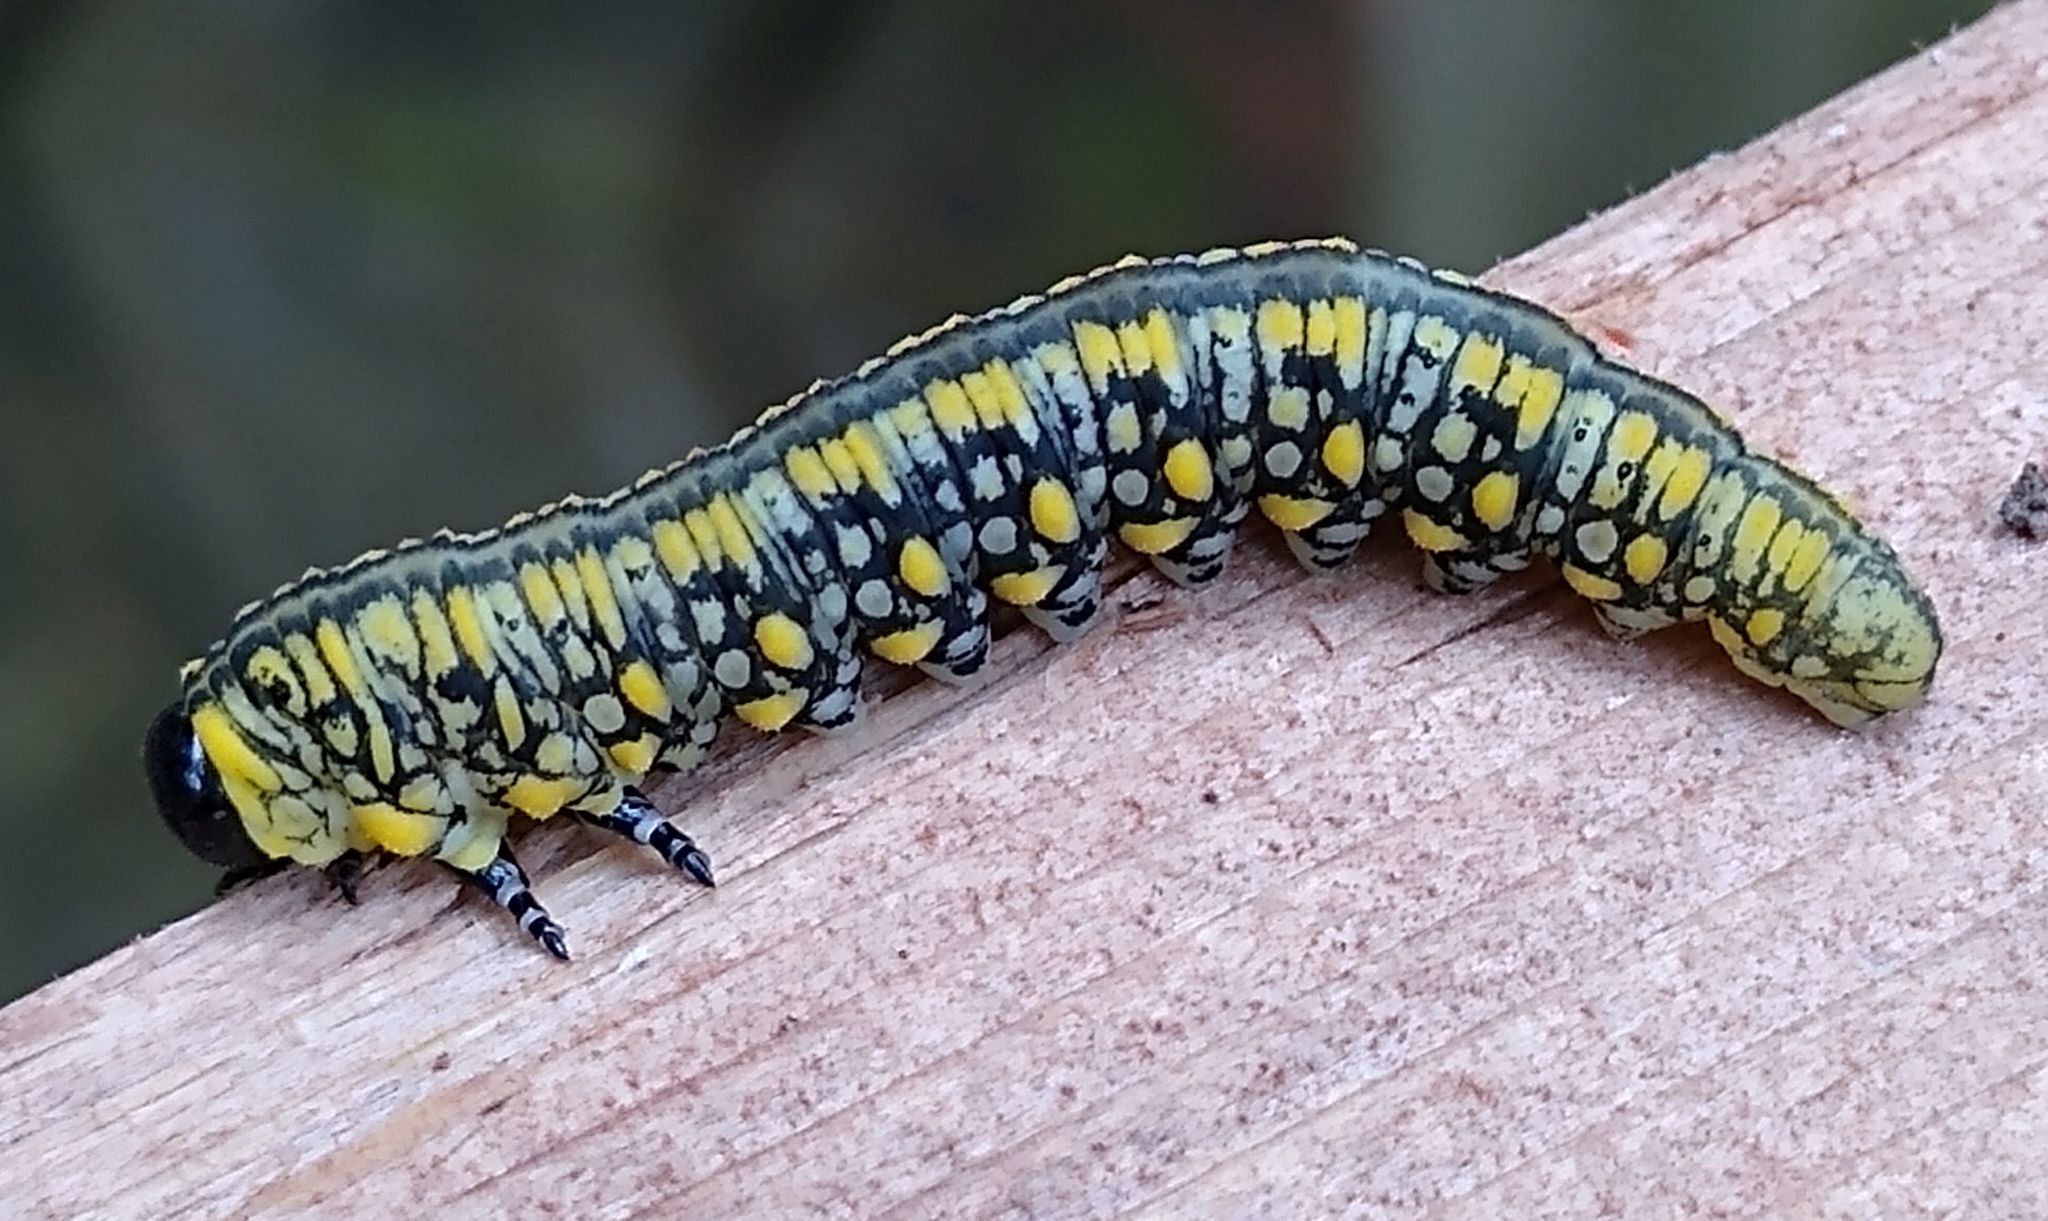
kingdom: Animalia
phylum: Arthropoda
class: Insecta
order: Hymenoptera
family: Diprionidae
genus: Diprion
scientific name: Diprion similis
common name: Pine sawfly
